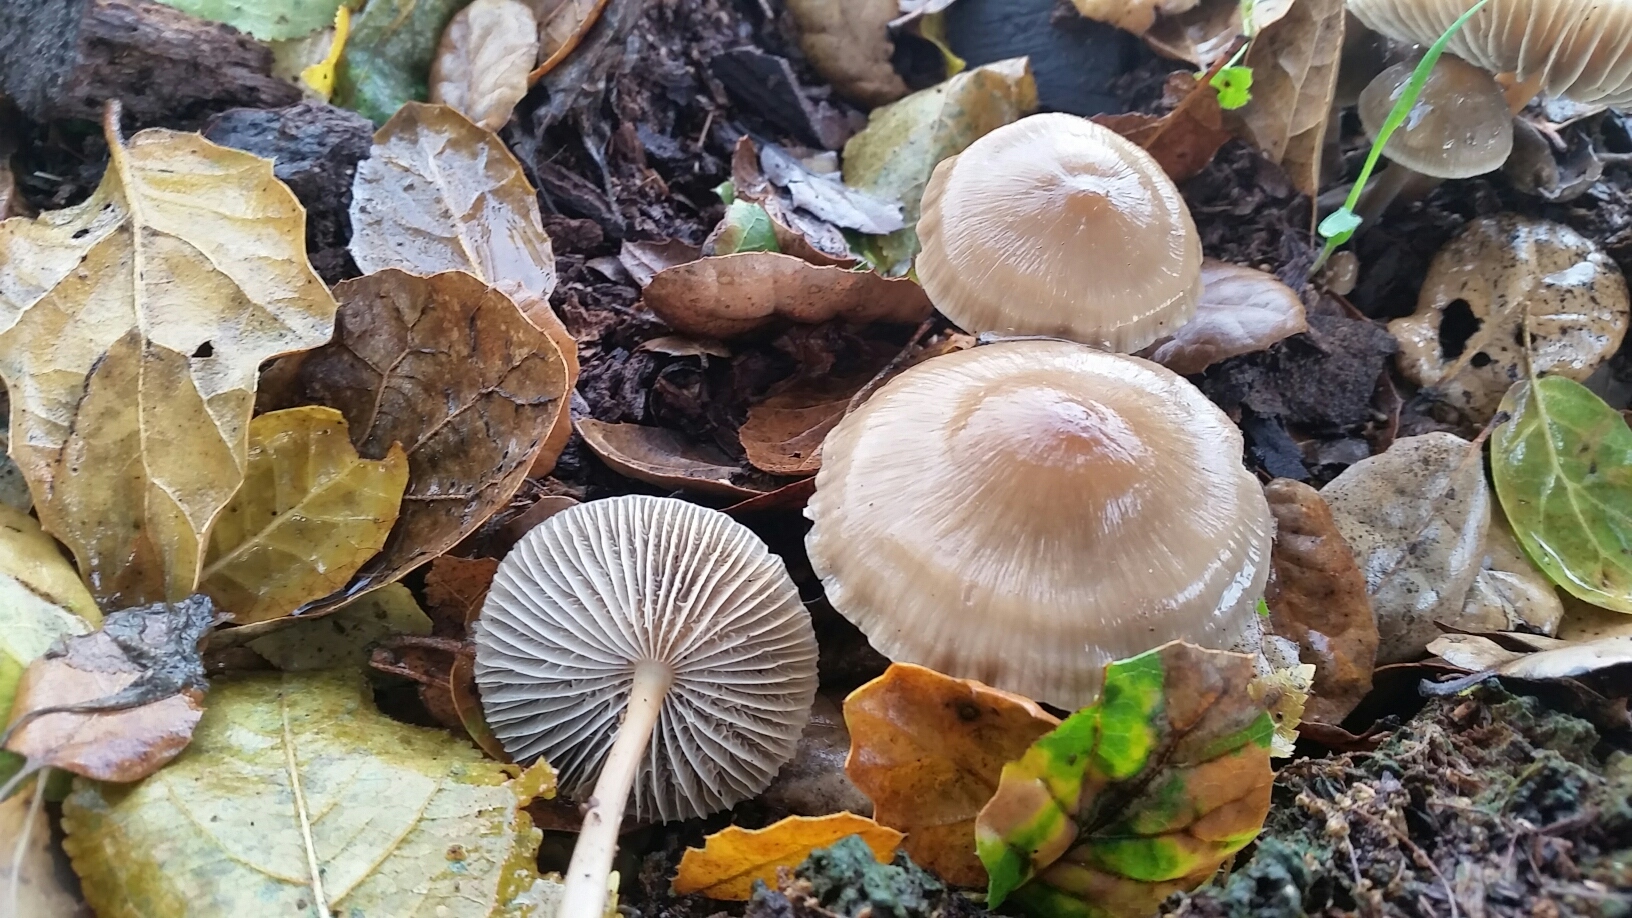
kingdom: Fungi
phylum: Basidiomycota
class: Agaricomycetes
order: Agaricales
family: Mycenaceae
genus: Mycena
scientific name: Mycena galericulata
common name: Bonnet mycena
